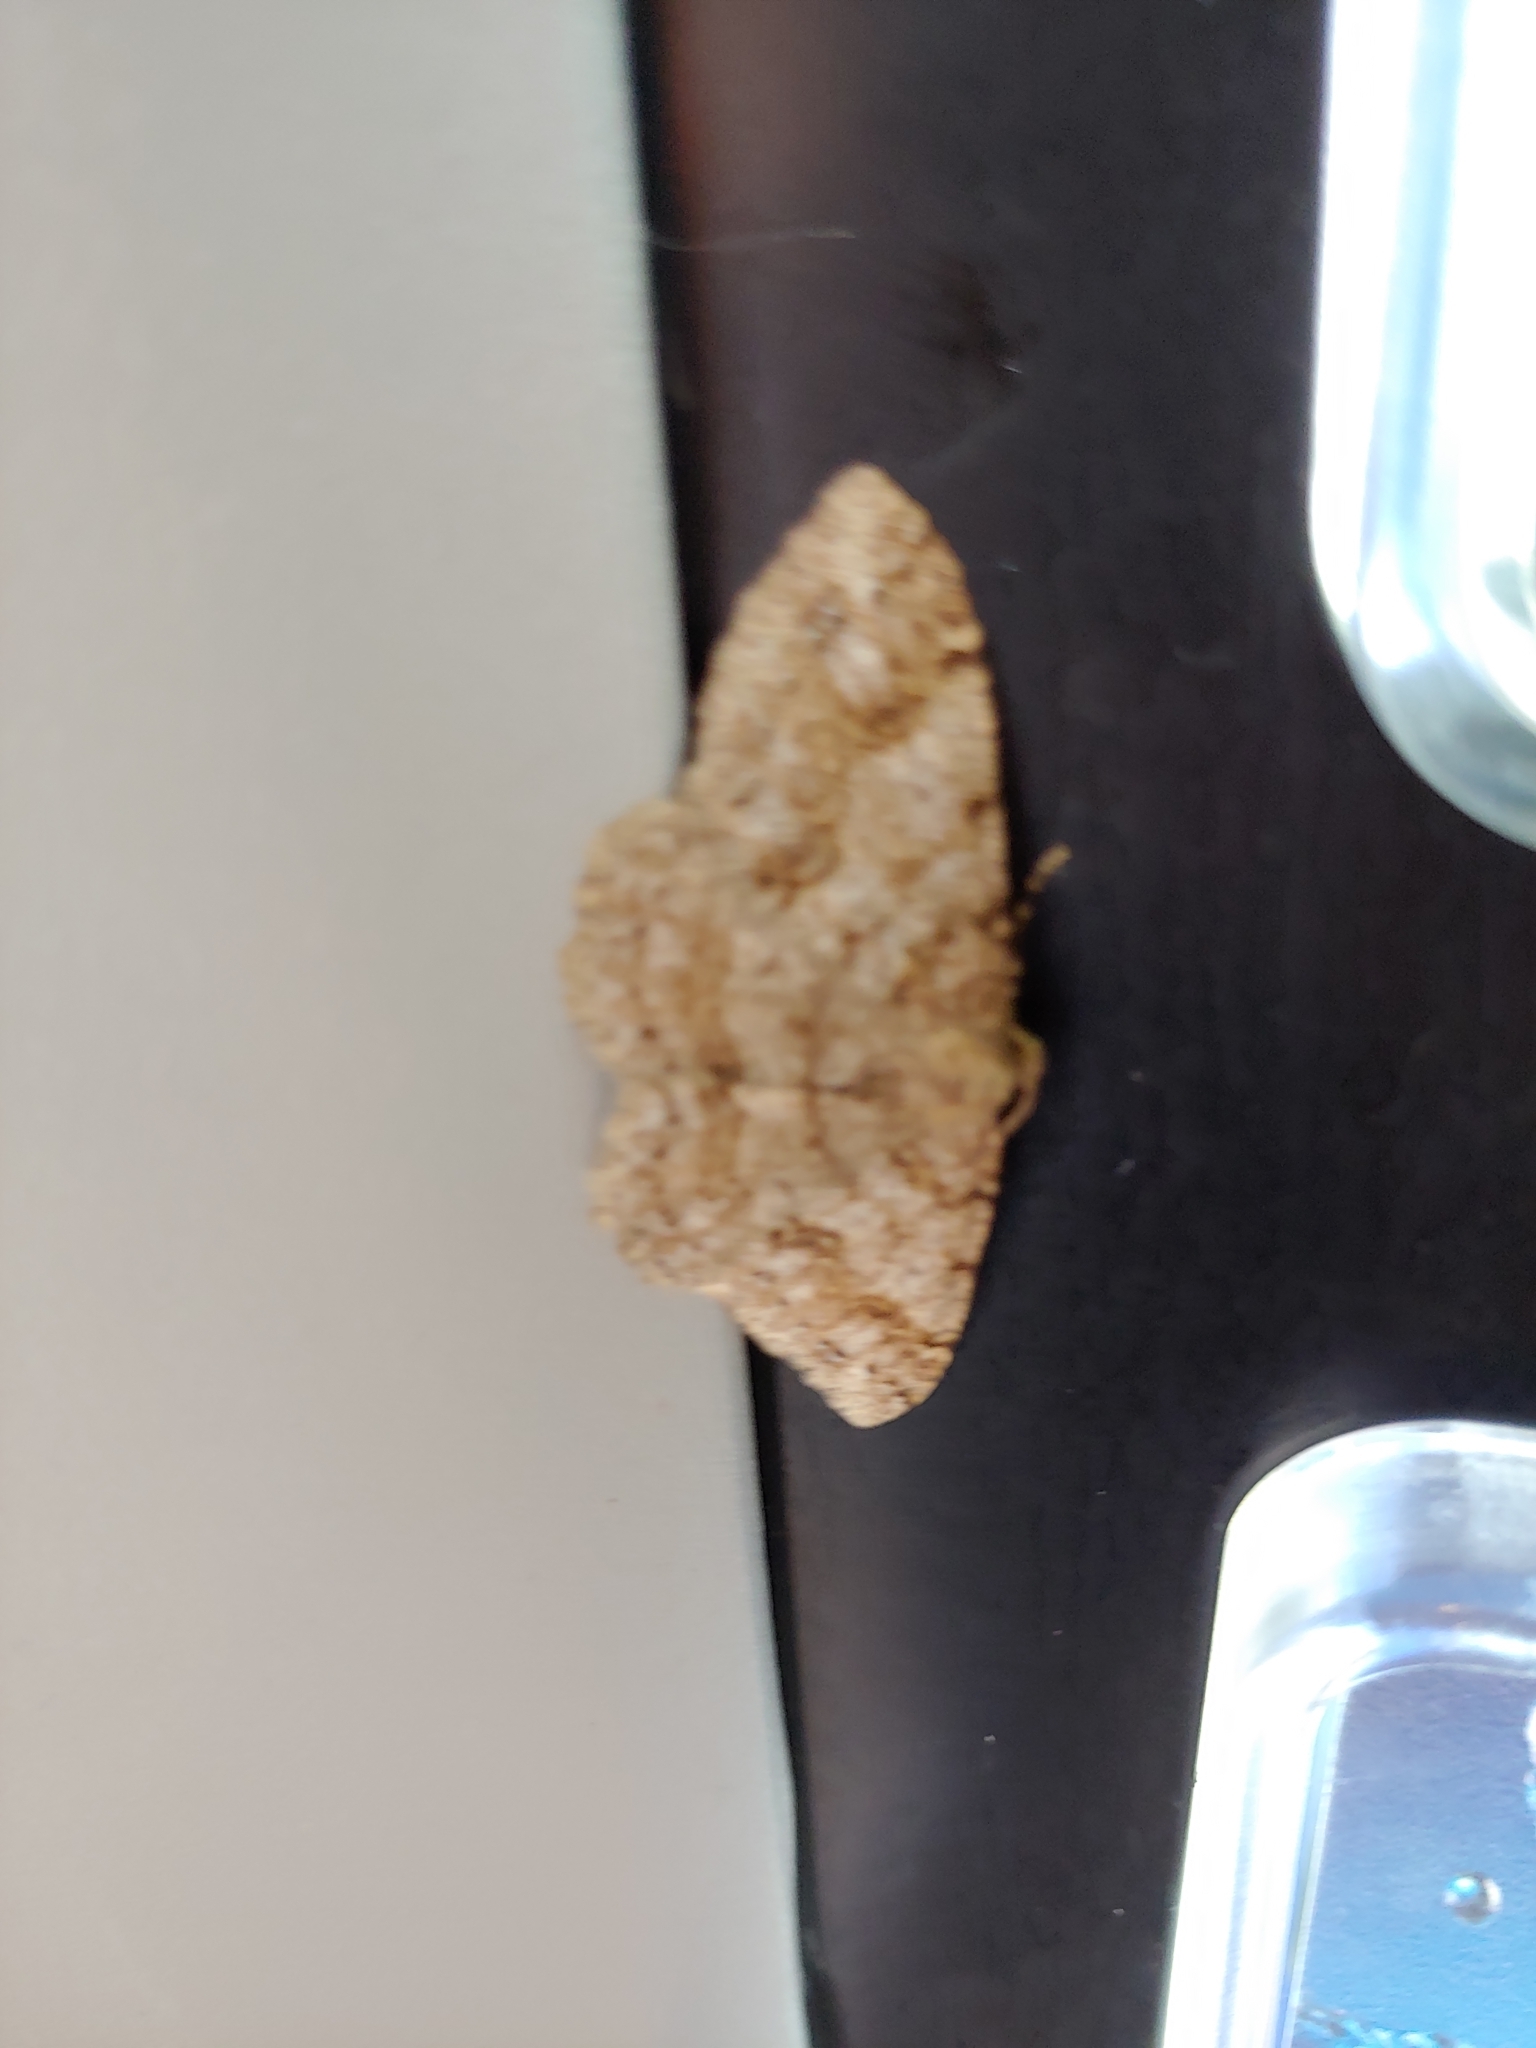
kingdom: Animalia
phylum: Arthropoda
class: Insecta
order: Lepidoptera
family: Geometridae
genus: Melanolophia
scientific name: Melanolophia imitata
